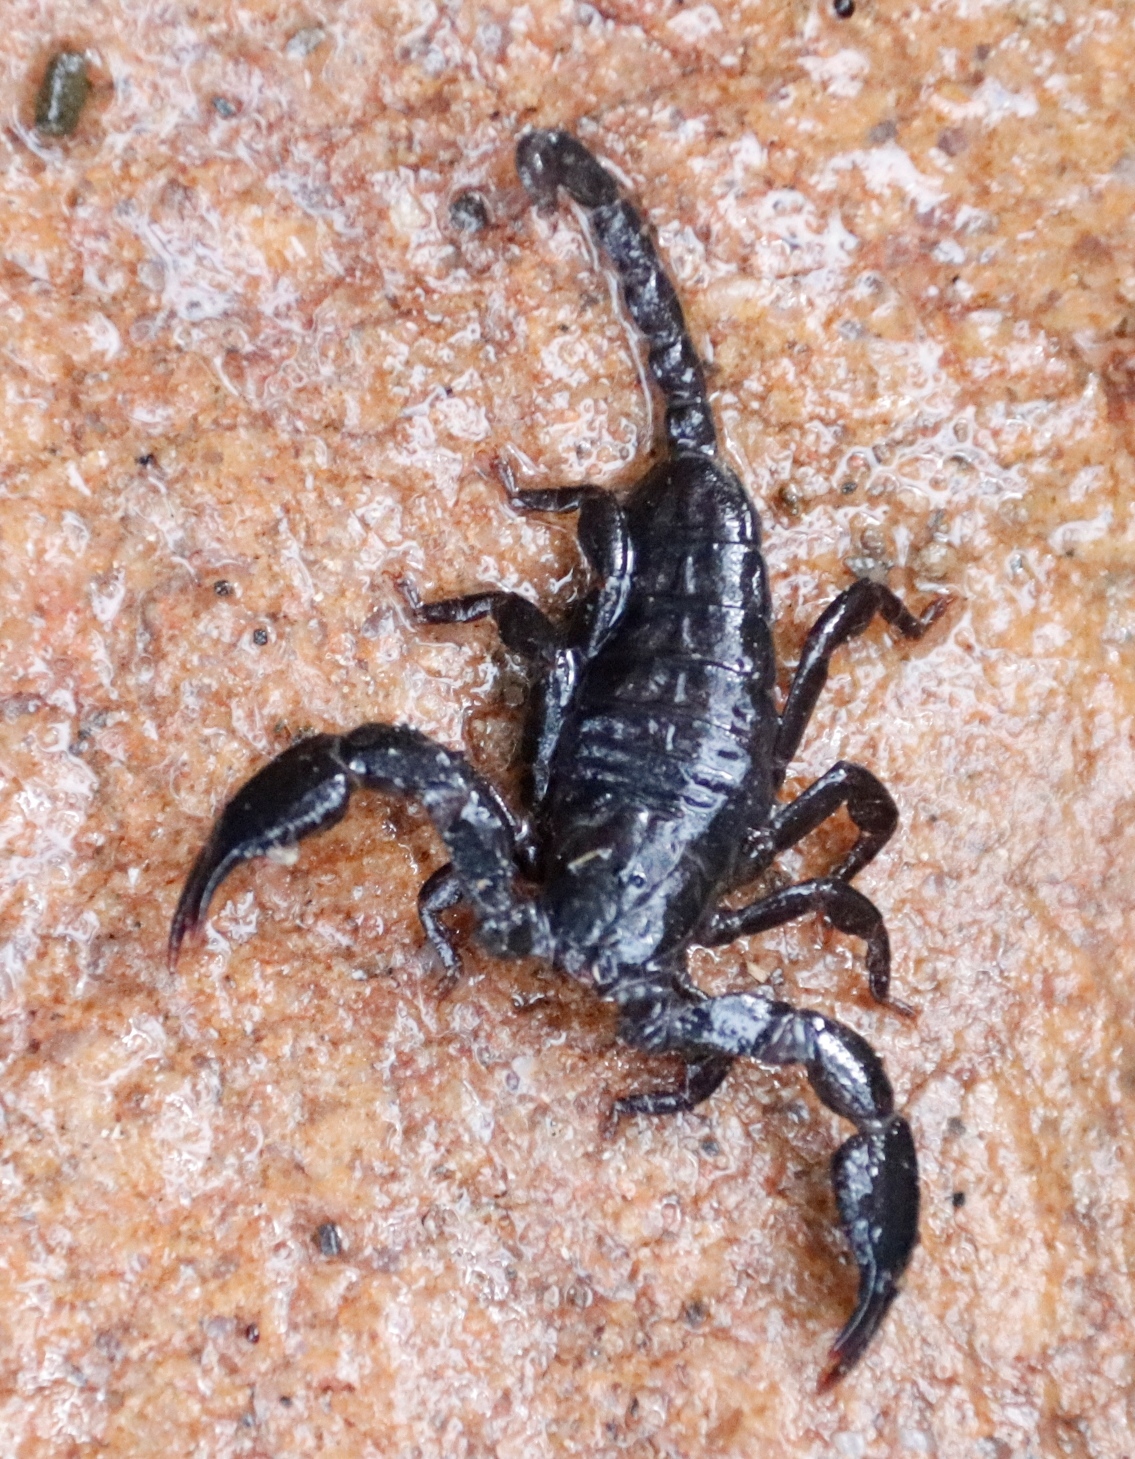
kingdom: Animalia
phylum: Arthropoda
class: Arachnida
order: Scorpiones
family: Hormuridae
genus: Opisthacanthus
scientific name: Opisthacanthus capensis
